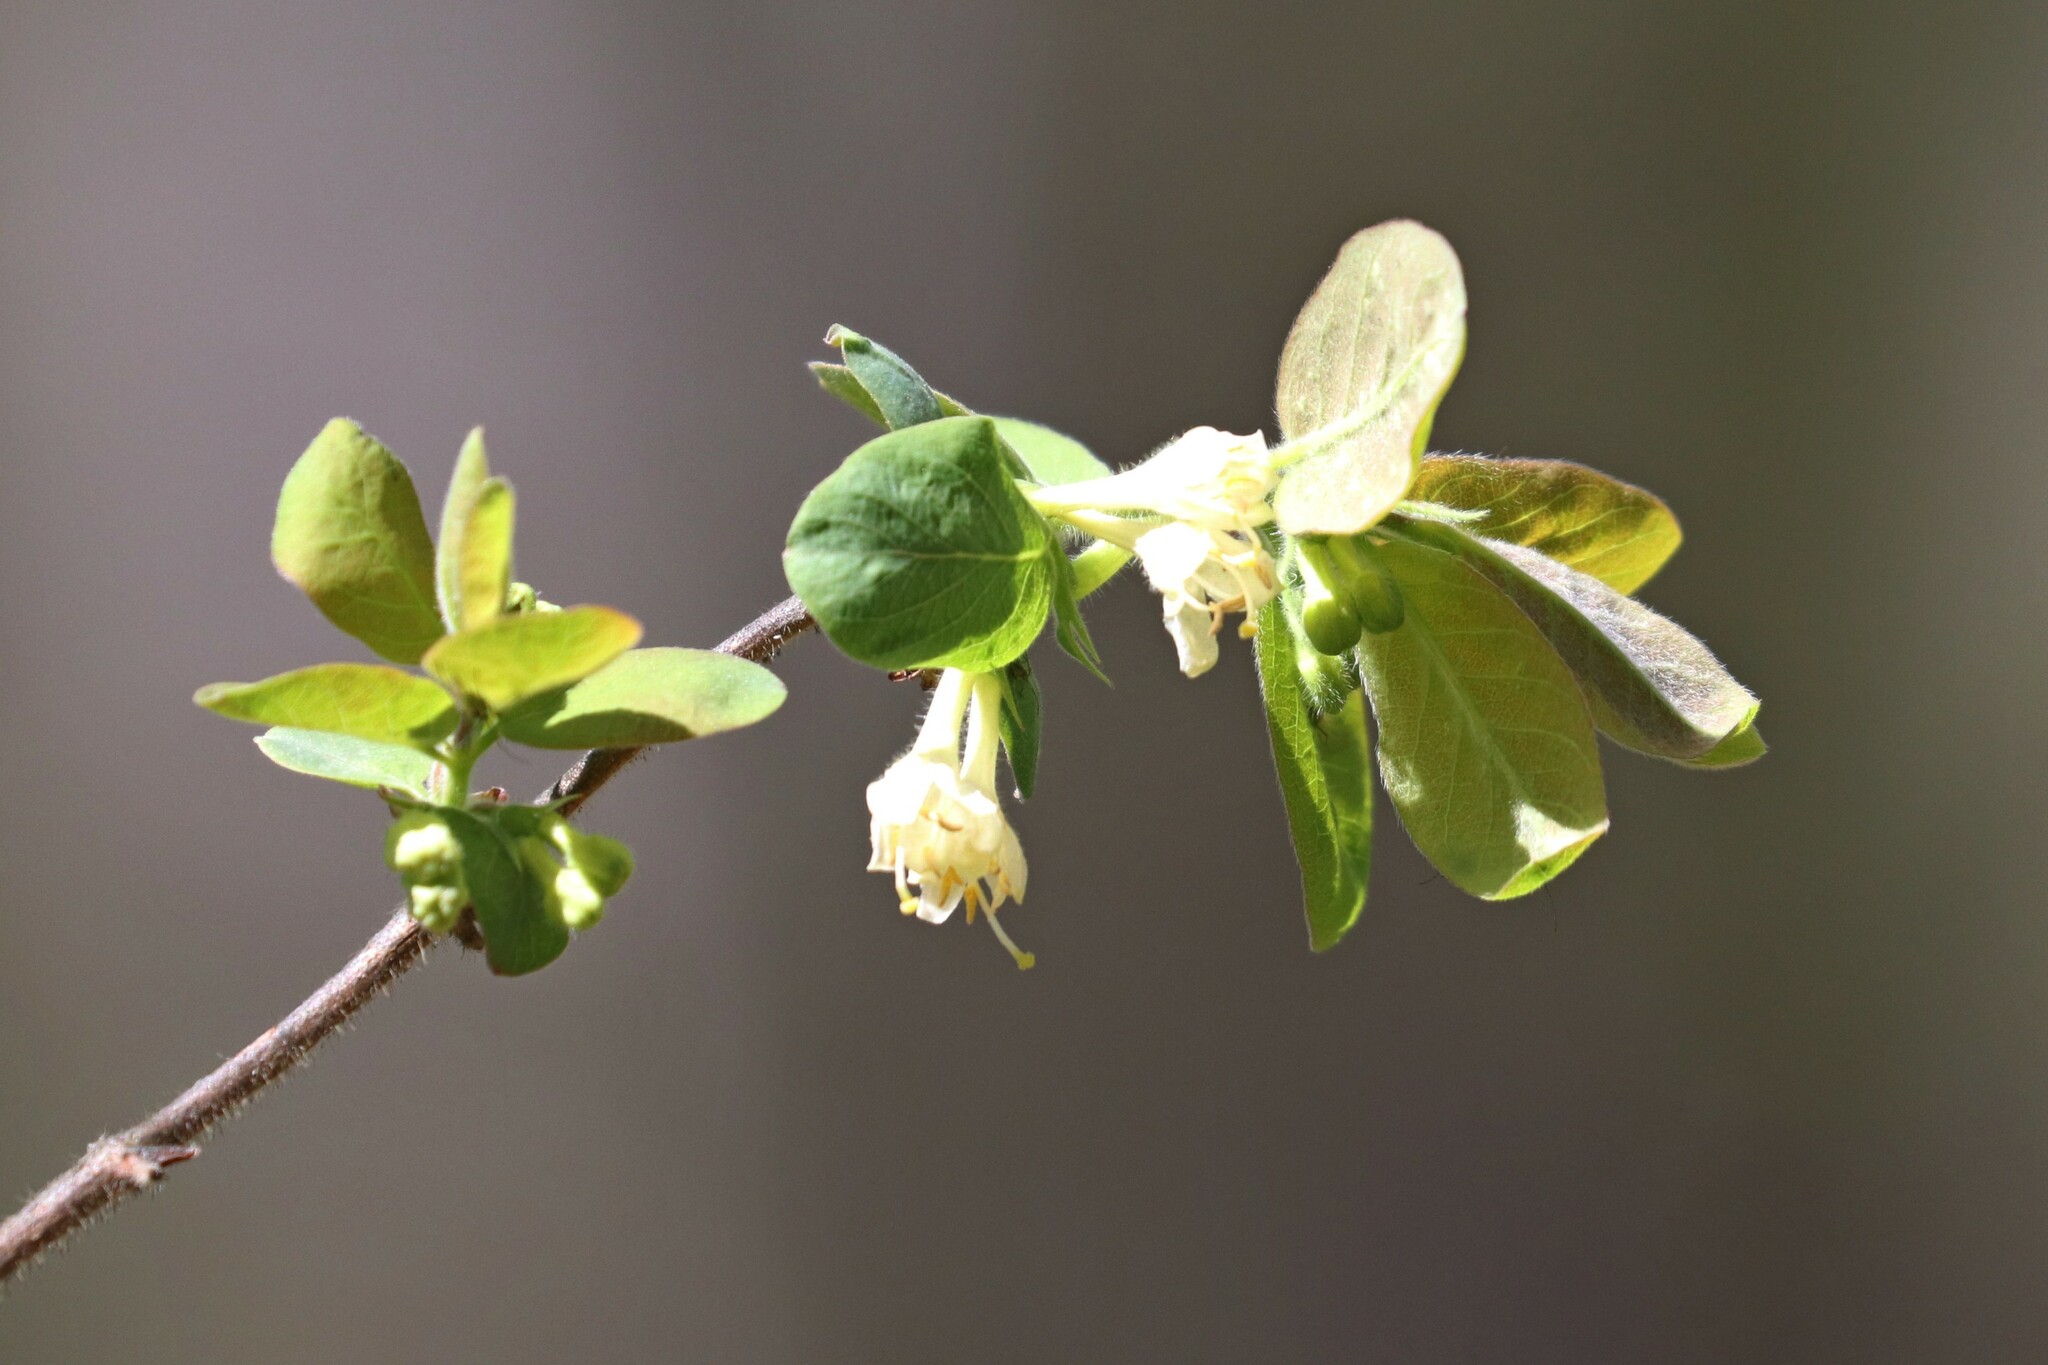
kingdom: Plantae
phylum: Tracheophyta
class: Magnoliopsida
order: Dipsacales
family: Caprifoliaceae
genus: Lonicera
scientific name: Lonicera caerulea
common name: Blue honeysuckle
